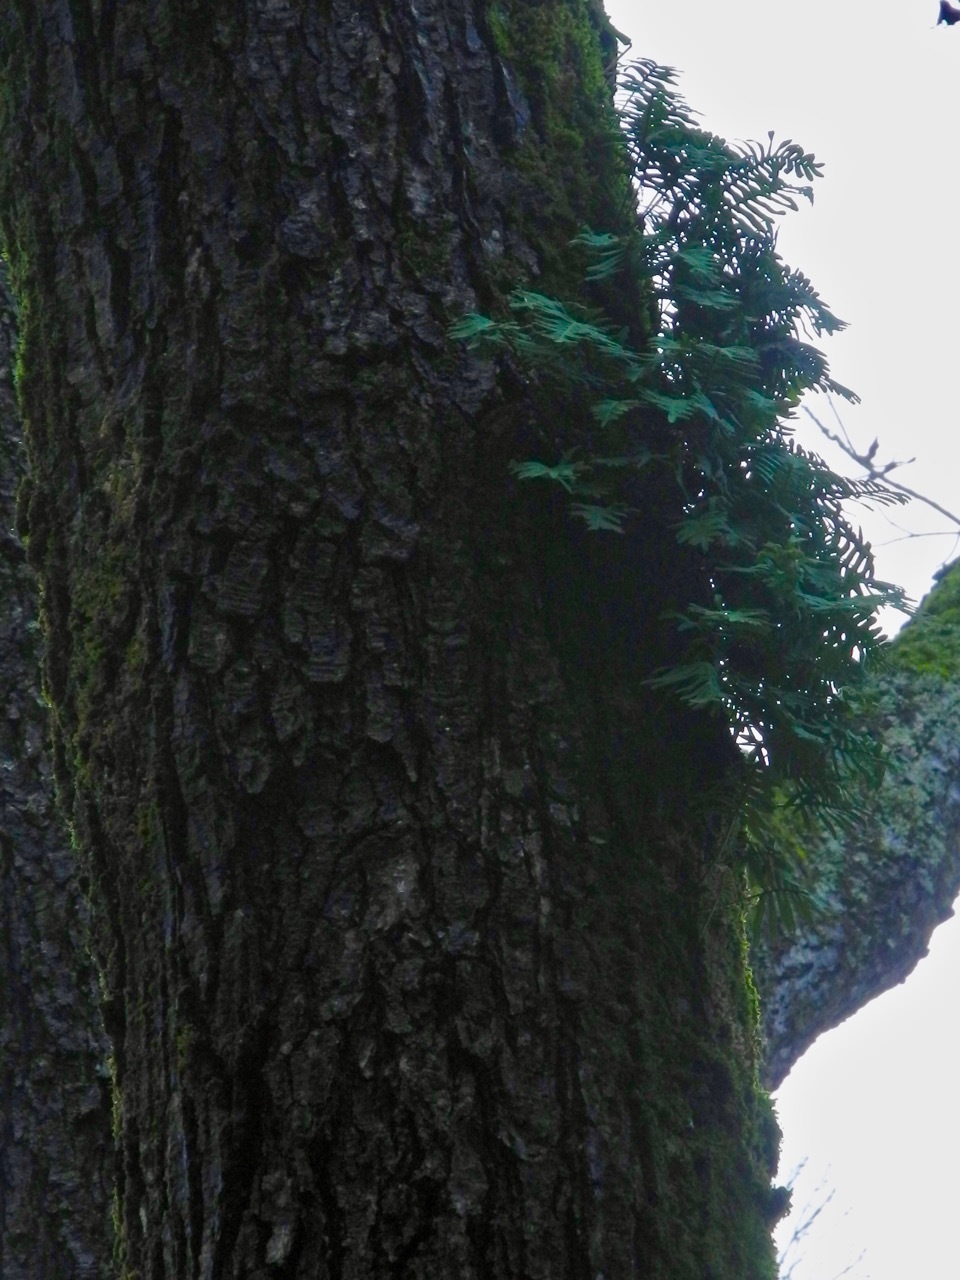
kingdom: Plantae
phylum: Tracheophyta
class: Polypodiopsida
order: Polypodiales
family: Polypodiaceae
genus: Pleopeltis
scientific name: Pleopeltis michauxiana
